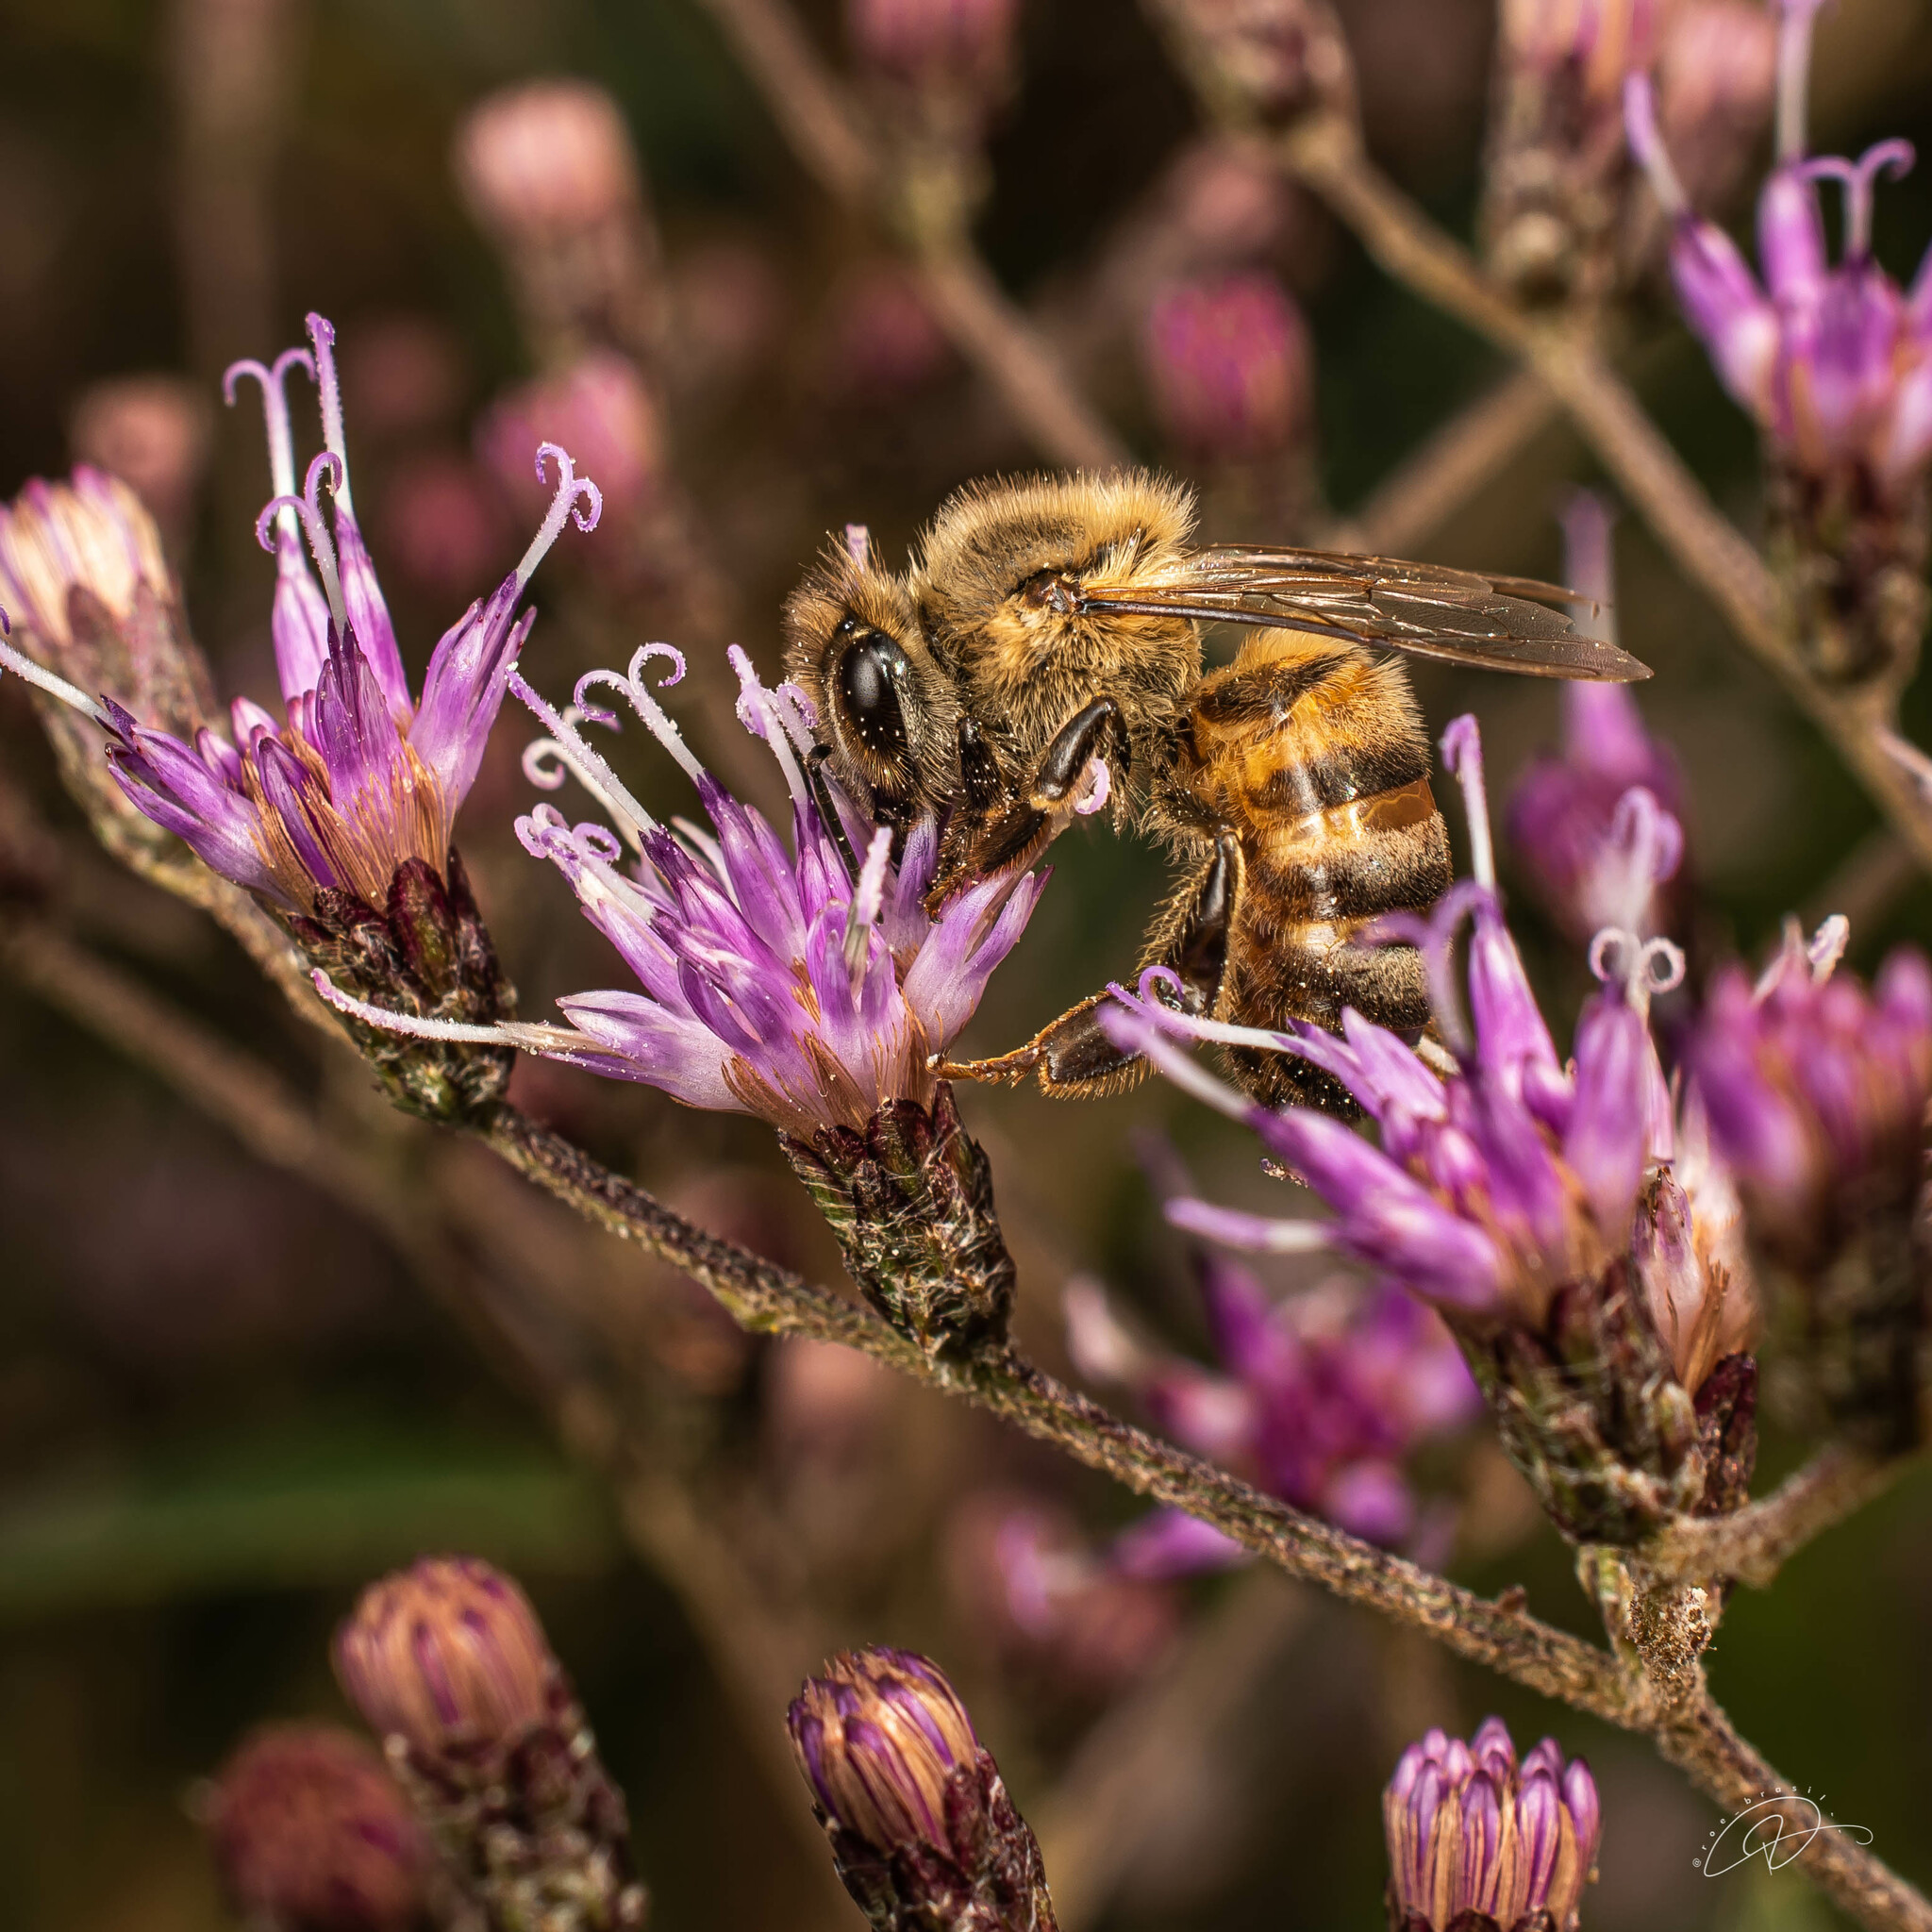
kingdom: Animalia
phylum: Arthropoda
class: Insecta
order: Hymenoptera
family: Apidae
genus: Apis
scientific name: Apis mellifera
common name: Honey bee
